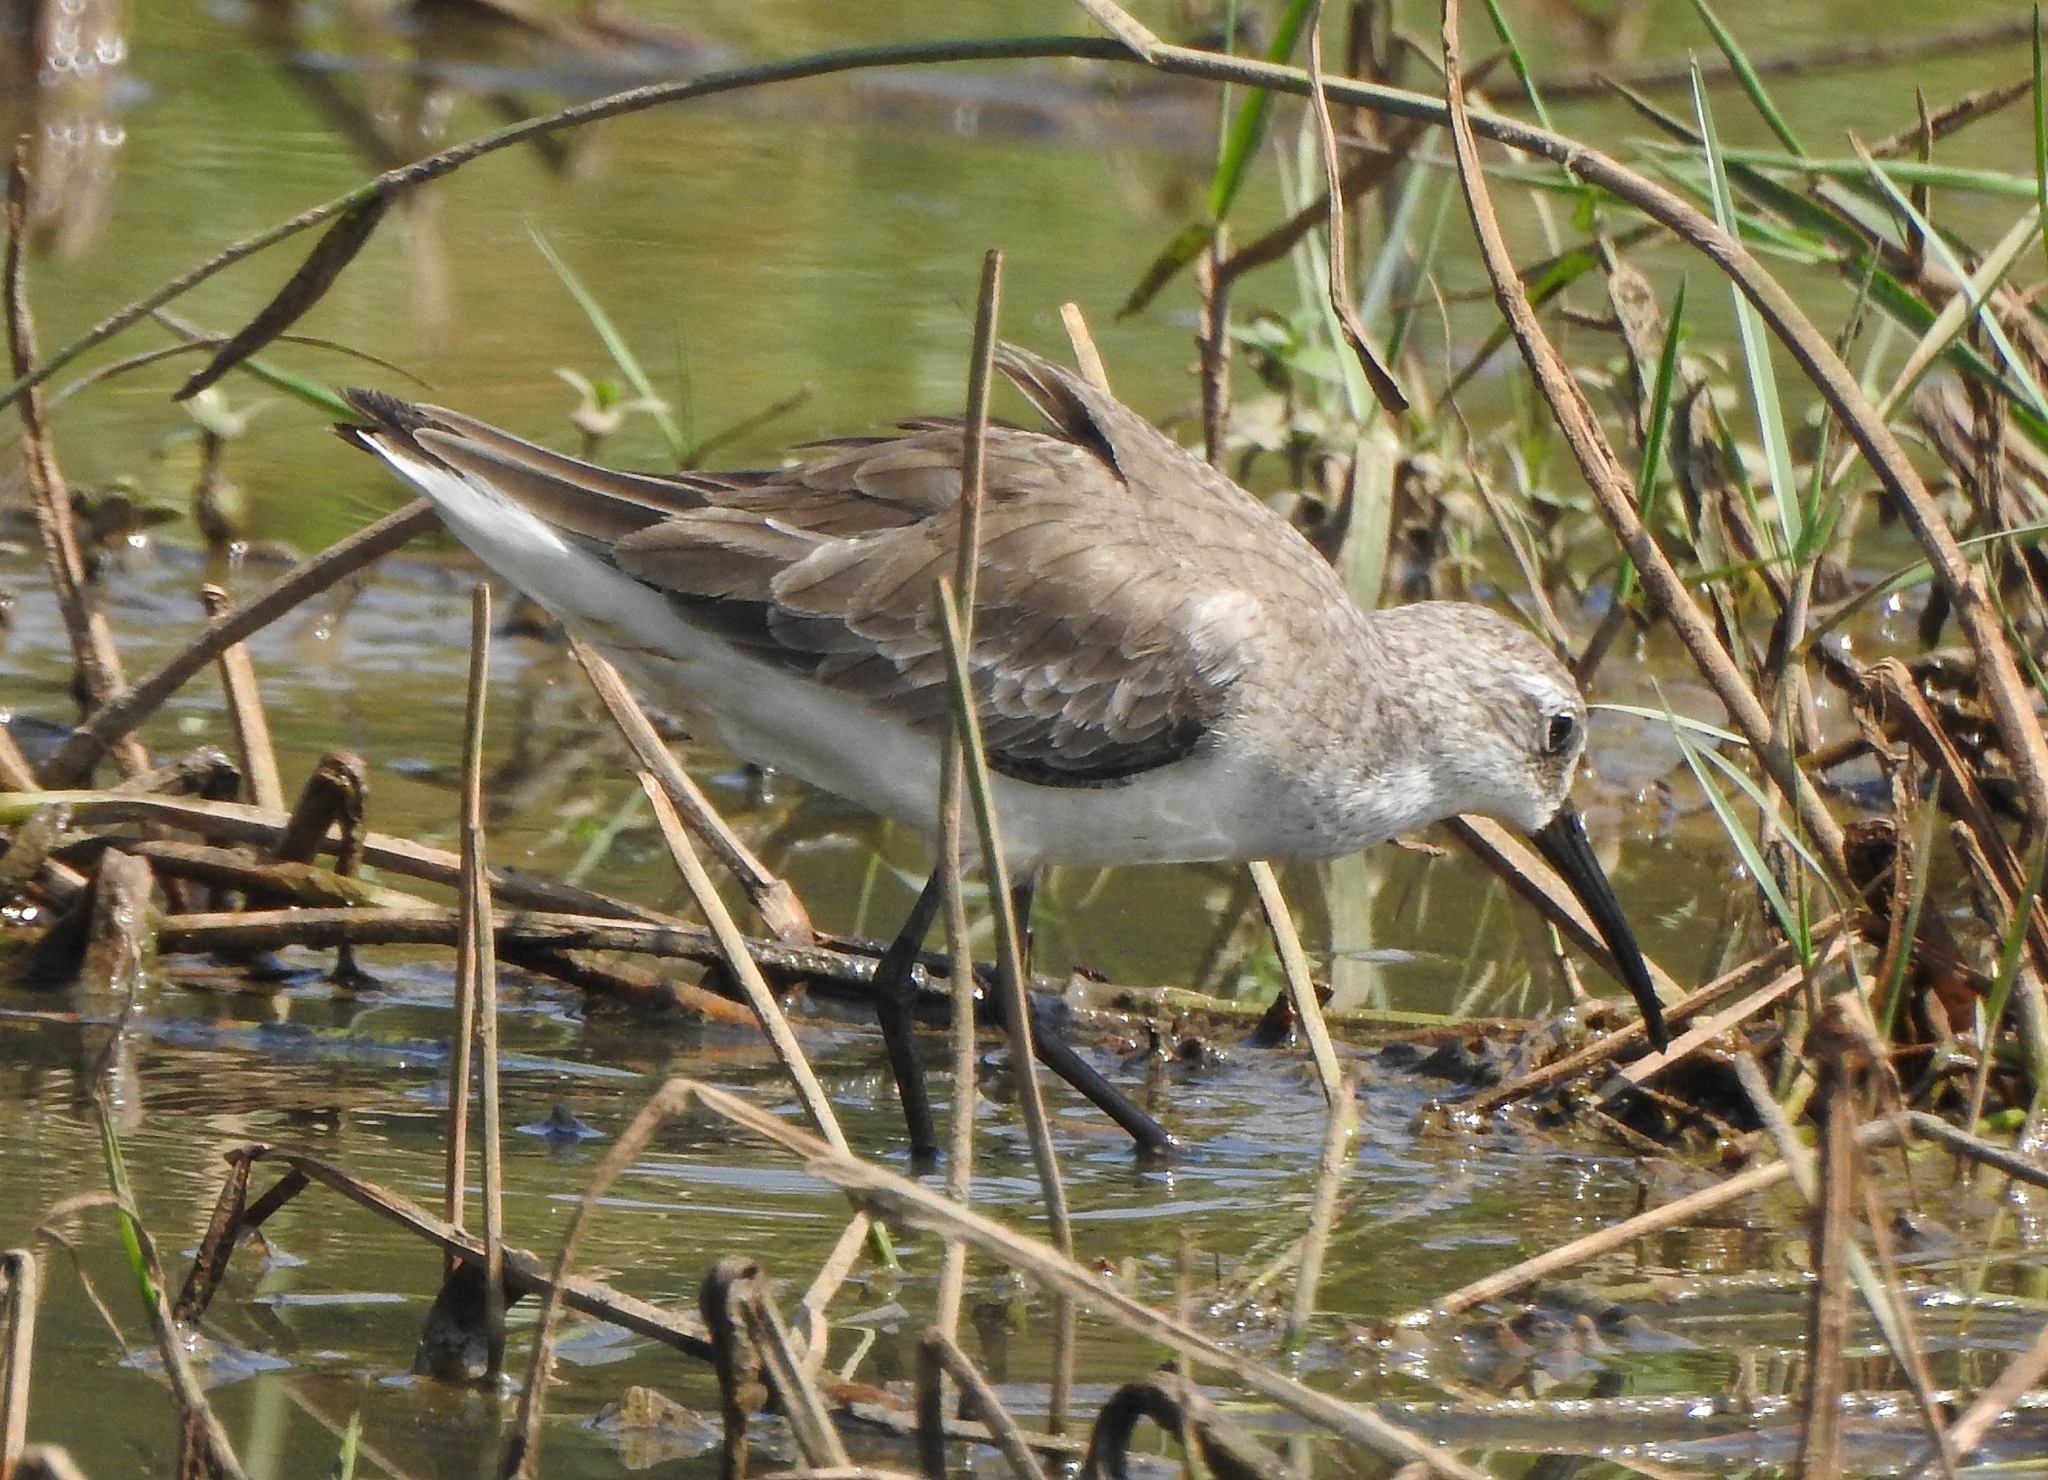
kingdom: Animalia
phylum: Chordata
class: Aves
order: Charadriiformes
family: Scolopacidae
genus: Calidris
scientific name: Calidris ferruginea
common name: Curlew sandpiper
